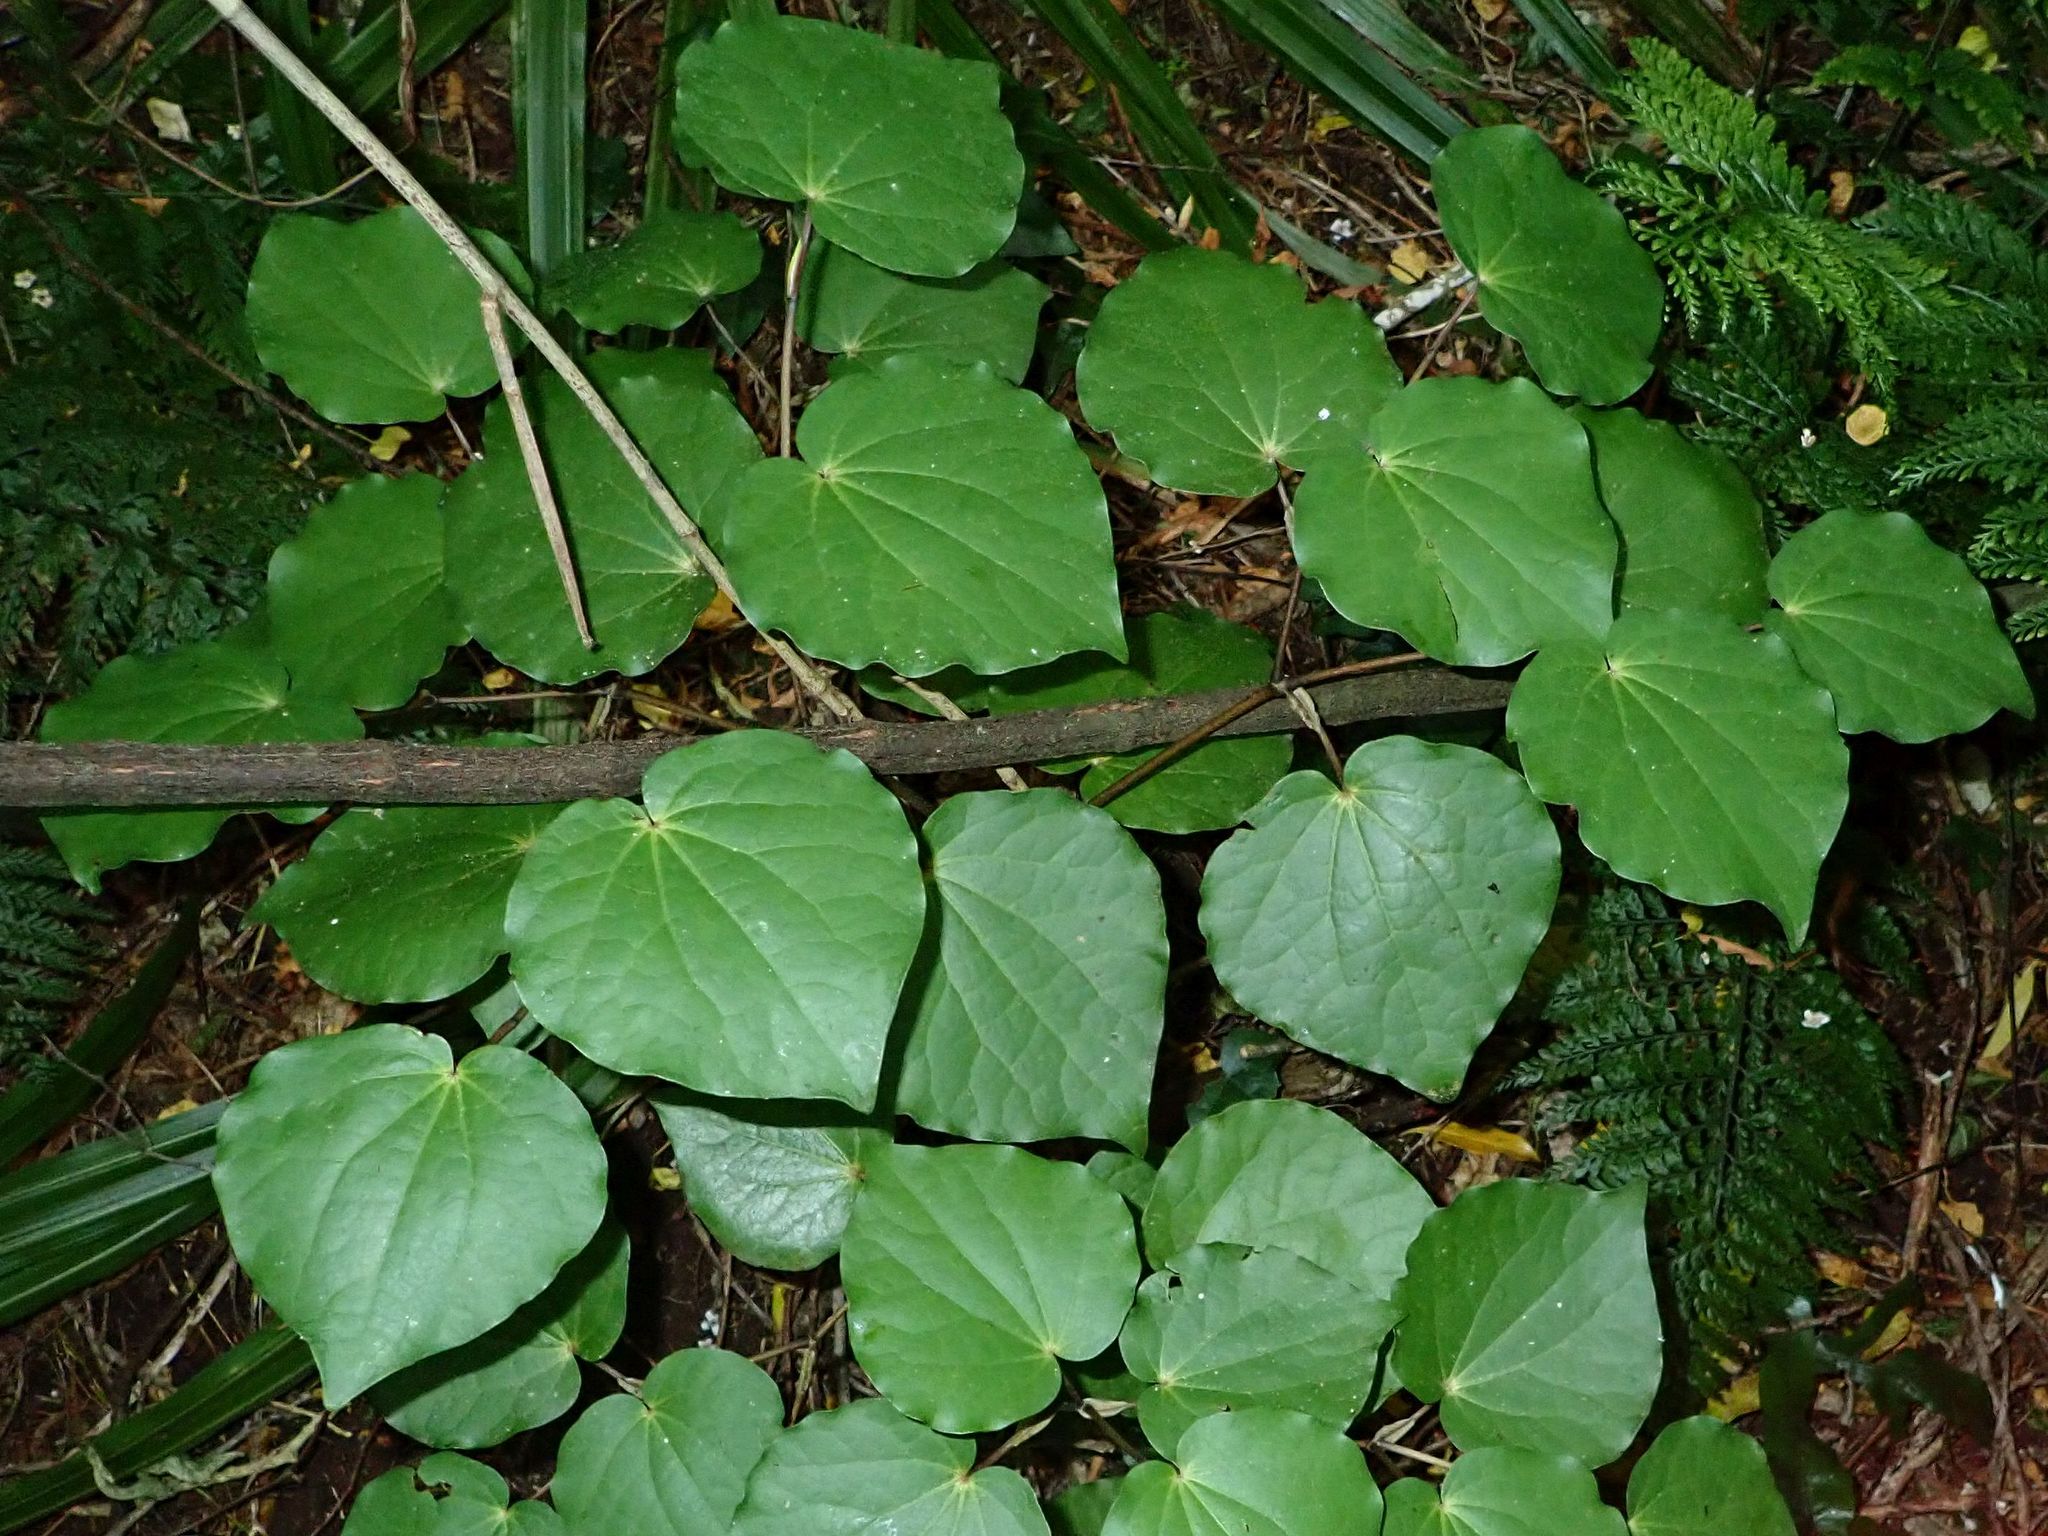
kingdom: Plantae
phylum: Tracheophyta
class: Magnoliopsida
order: Piperales
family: Piperaceae
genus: Macropiper
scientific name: Macropiper excelsum
